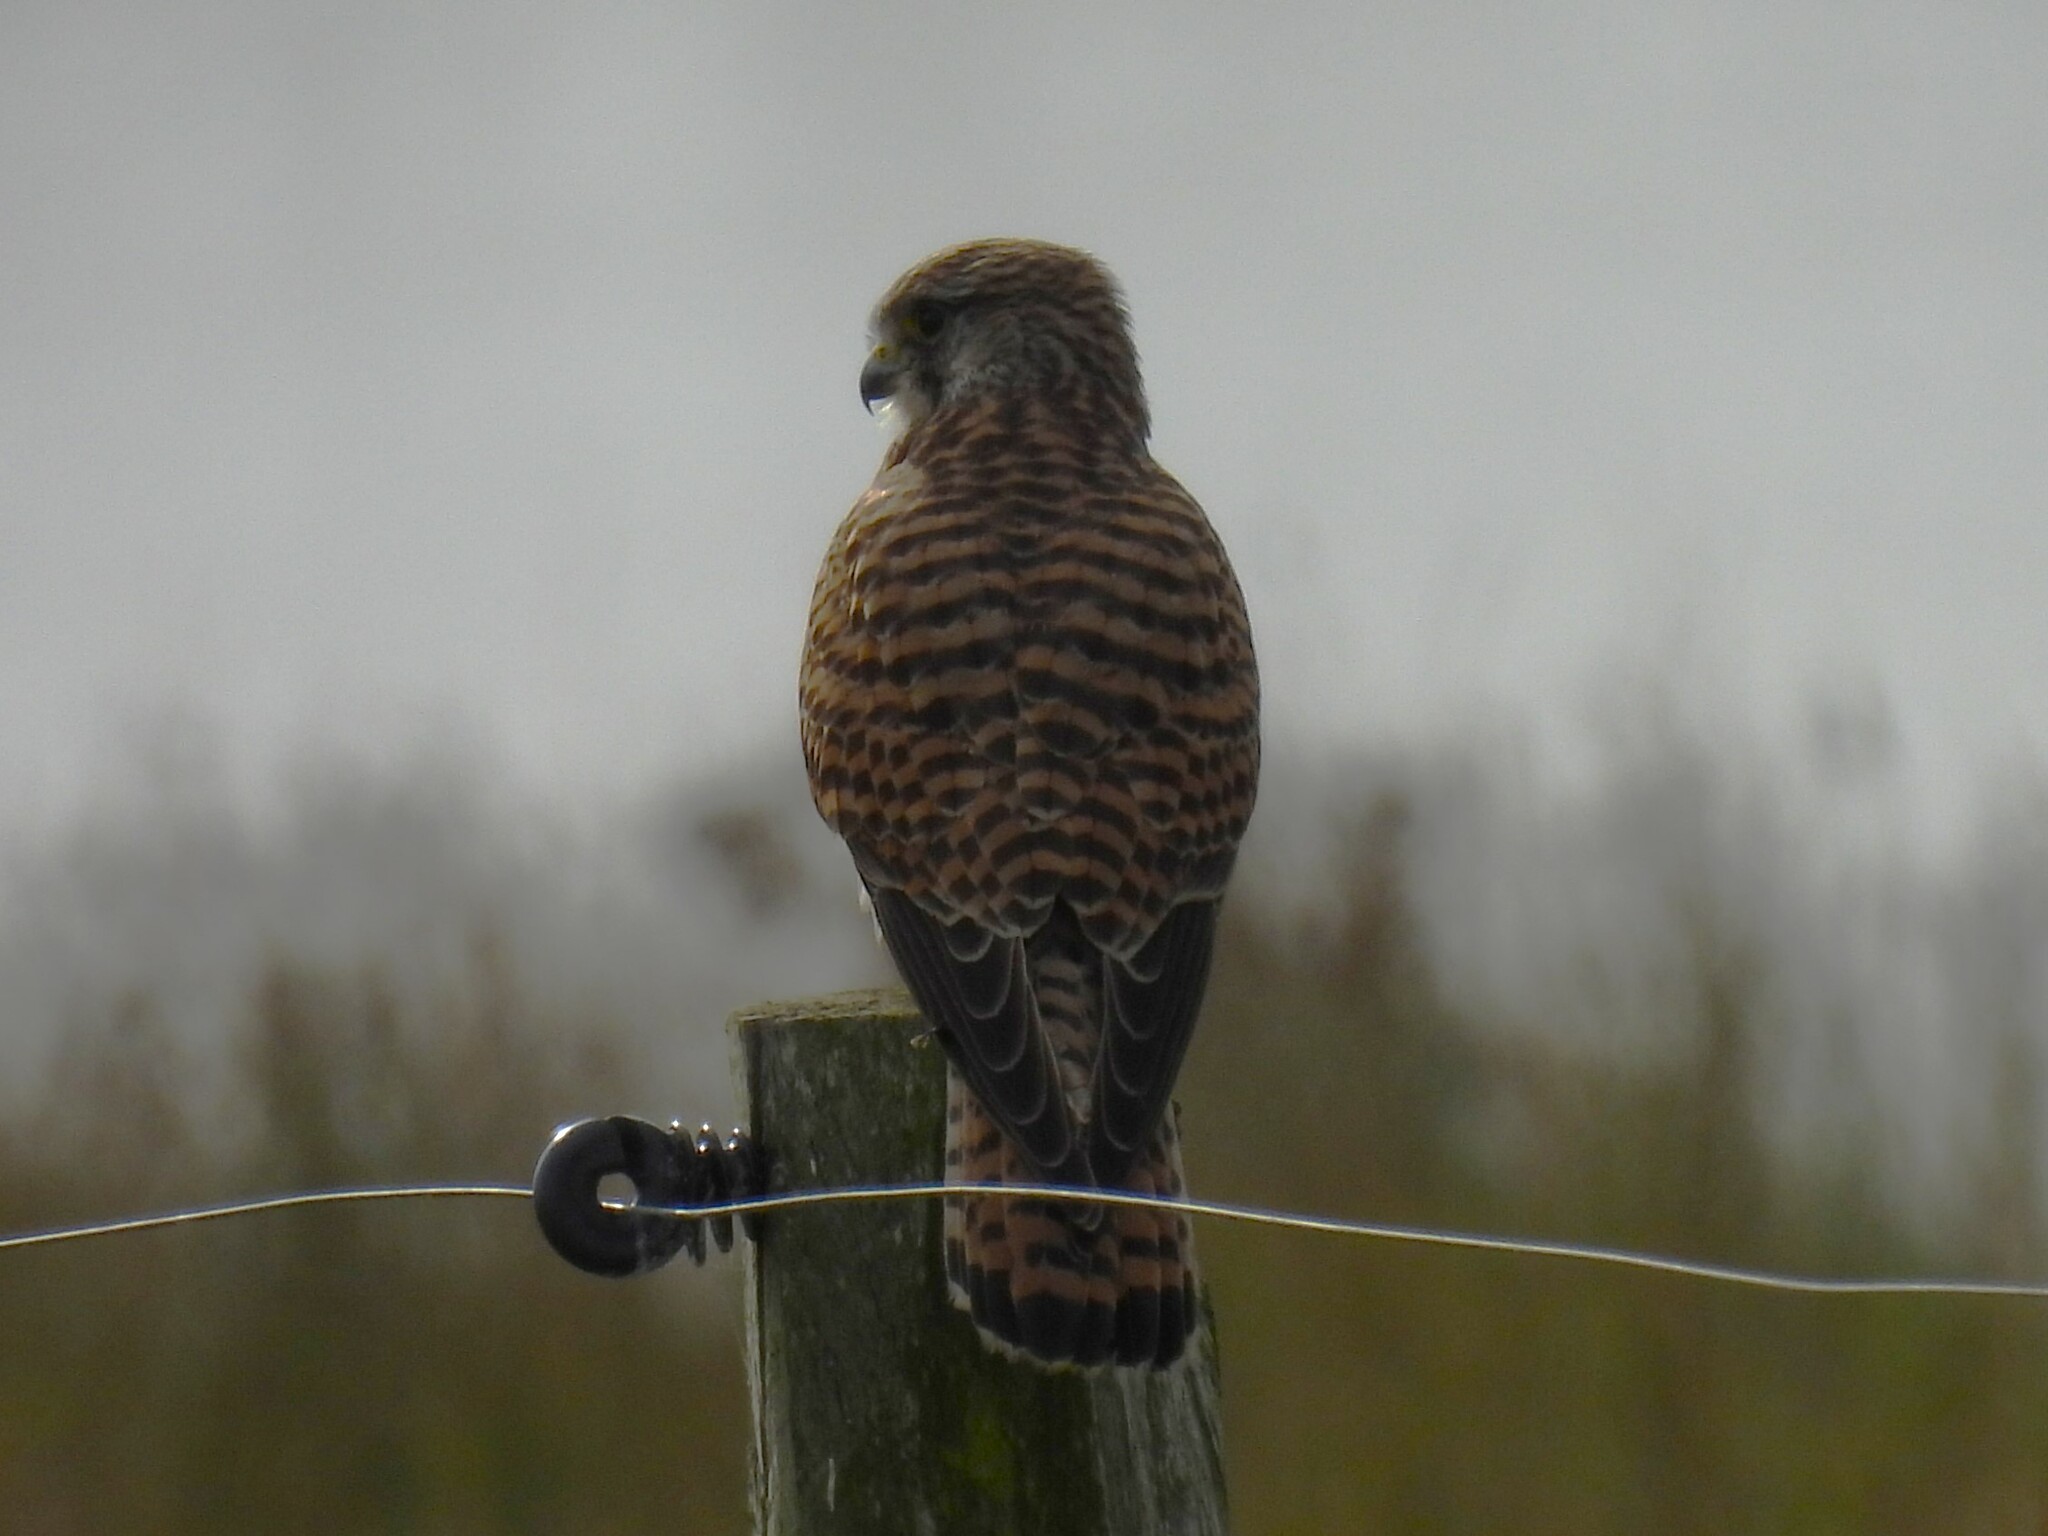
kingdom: Animalia
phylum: Chordata
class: Aves
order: Falconiformes
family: Falconidae
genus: Falco
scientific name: Falco tinnunculus
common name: Common kestrel
